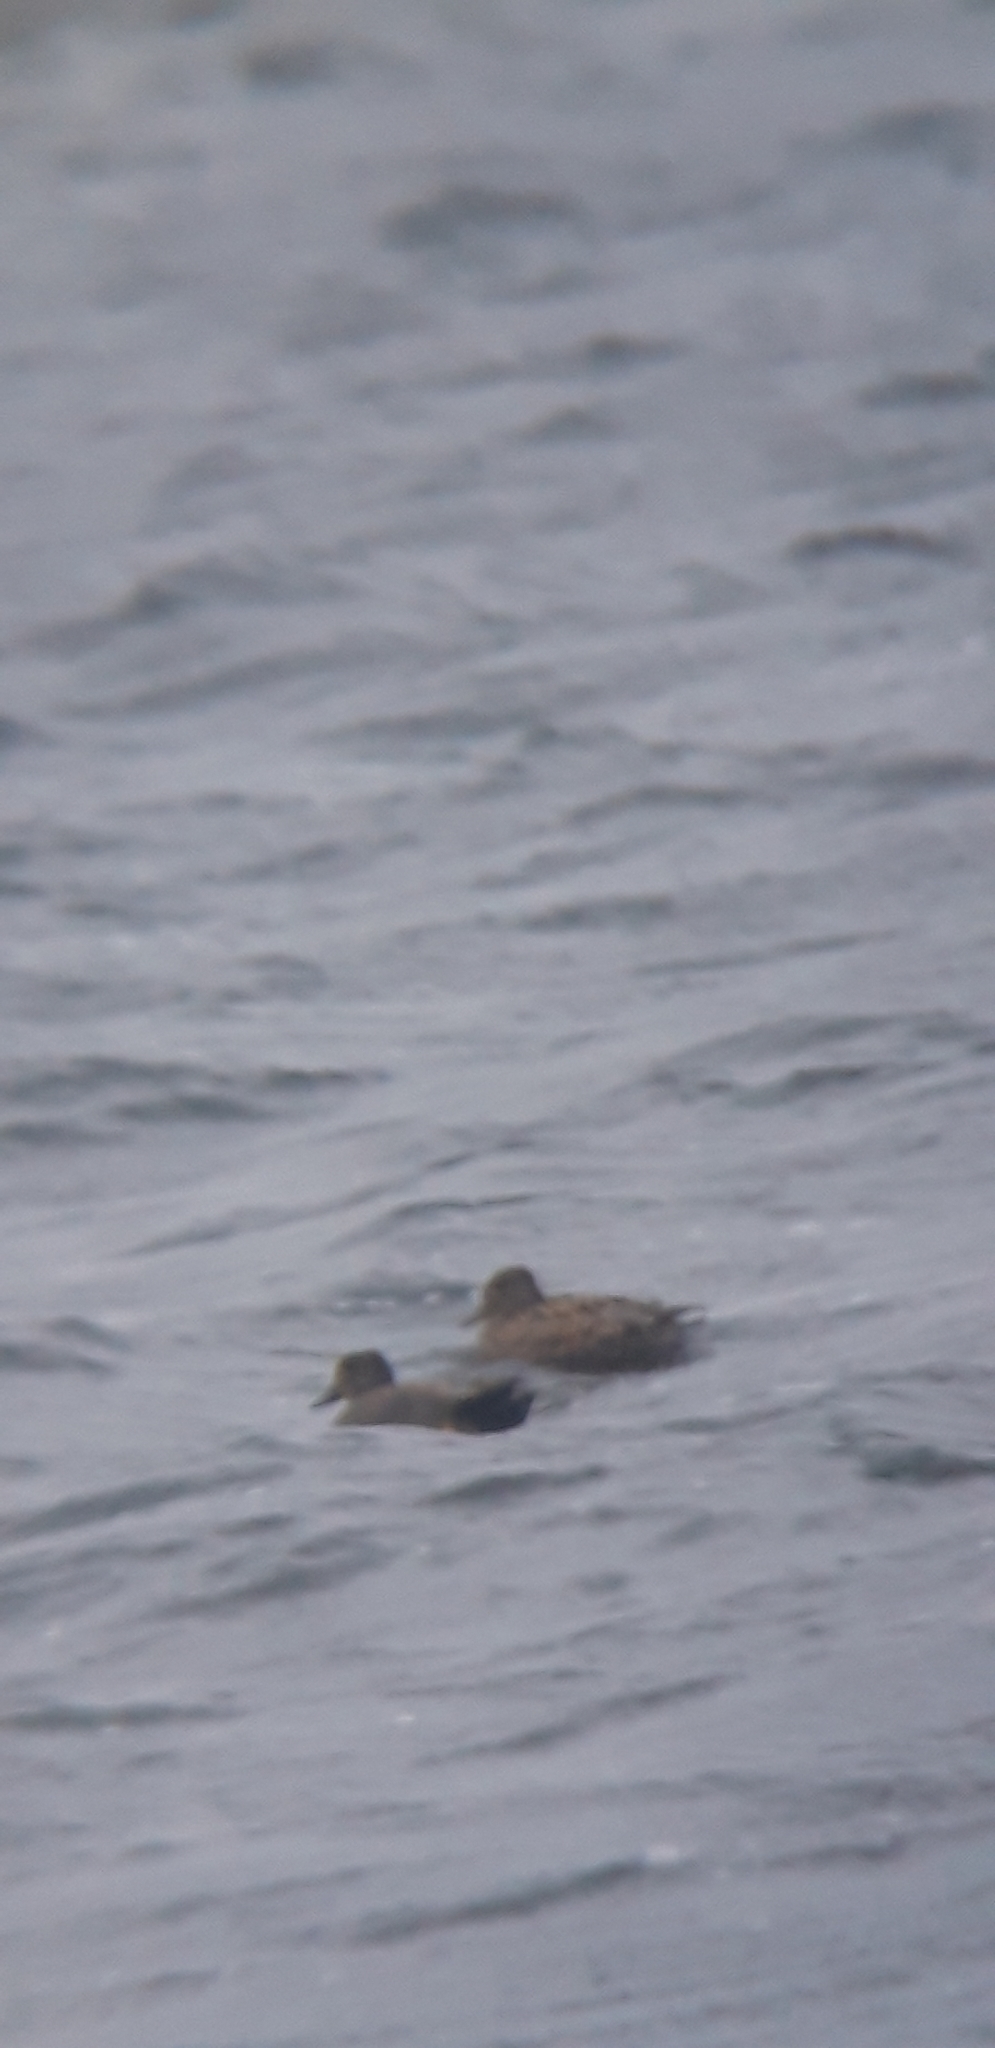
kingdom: Animalia
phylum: Chordata
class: Aves
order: Anseriformes
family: Anatidae
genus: Mareca
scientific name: Mareca strepera
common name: Gadwall
